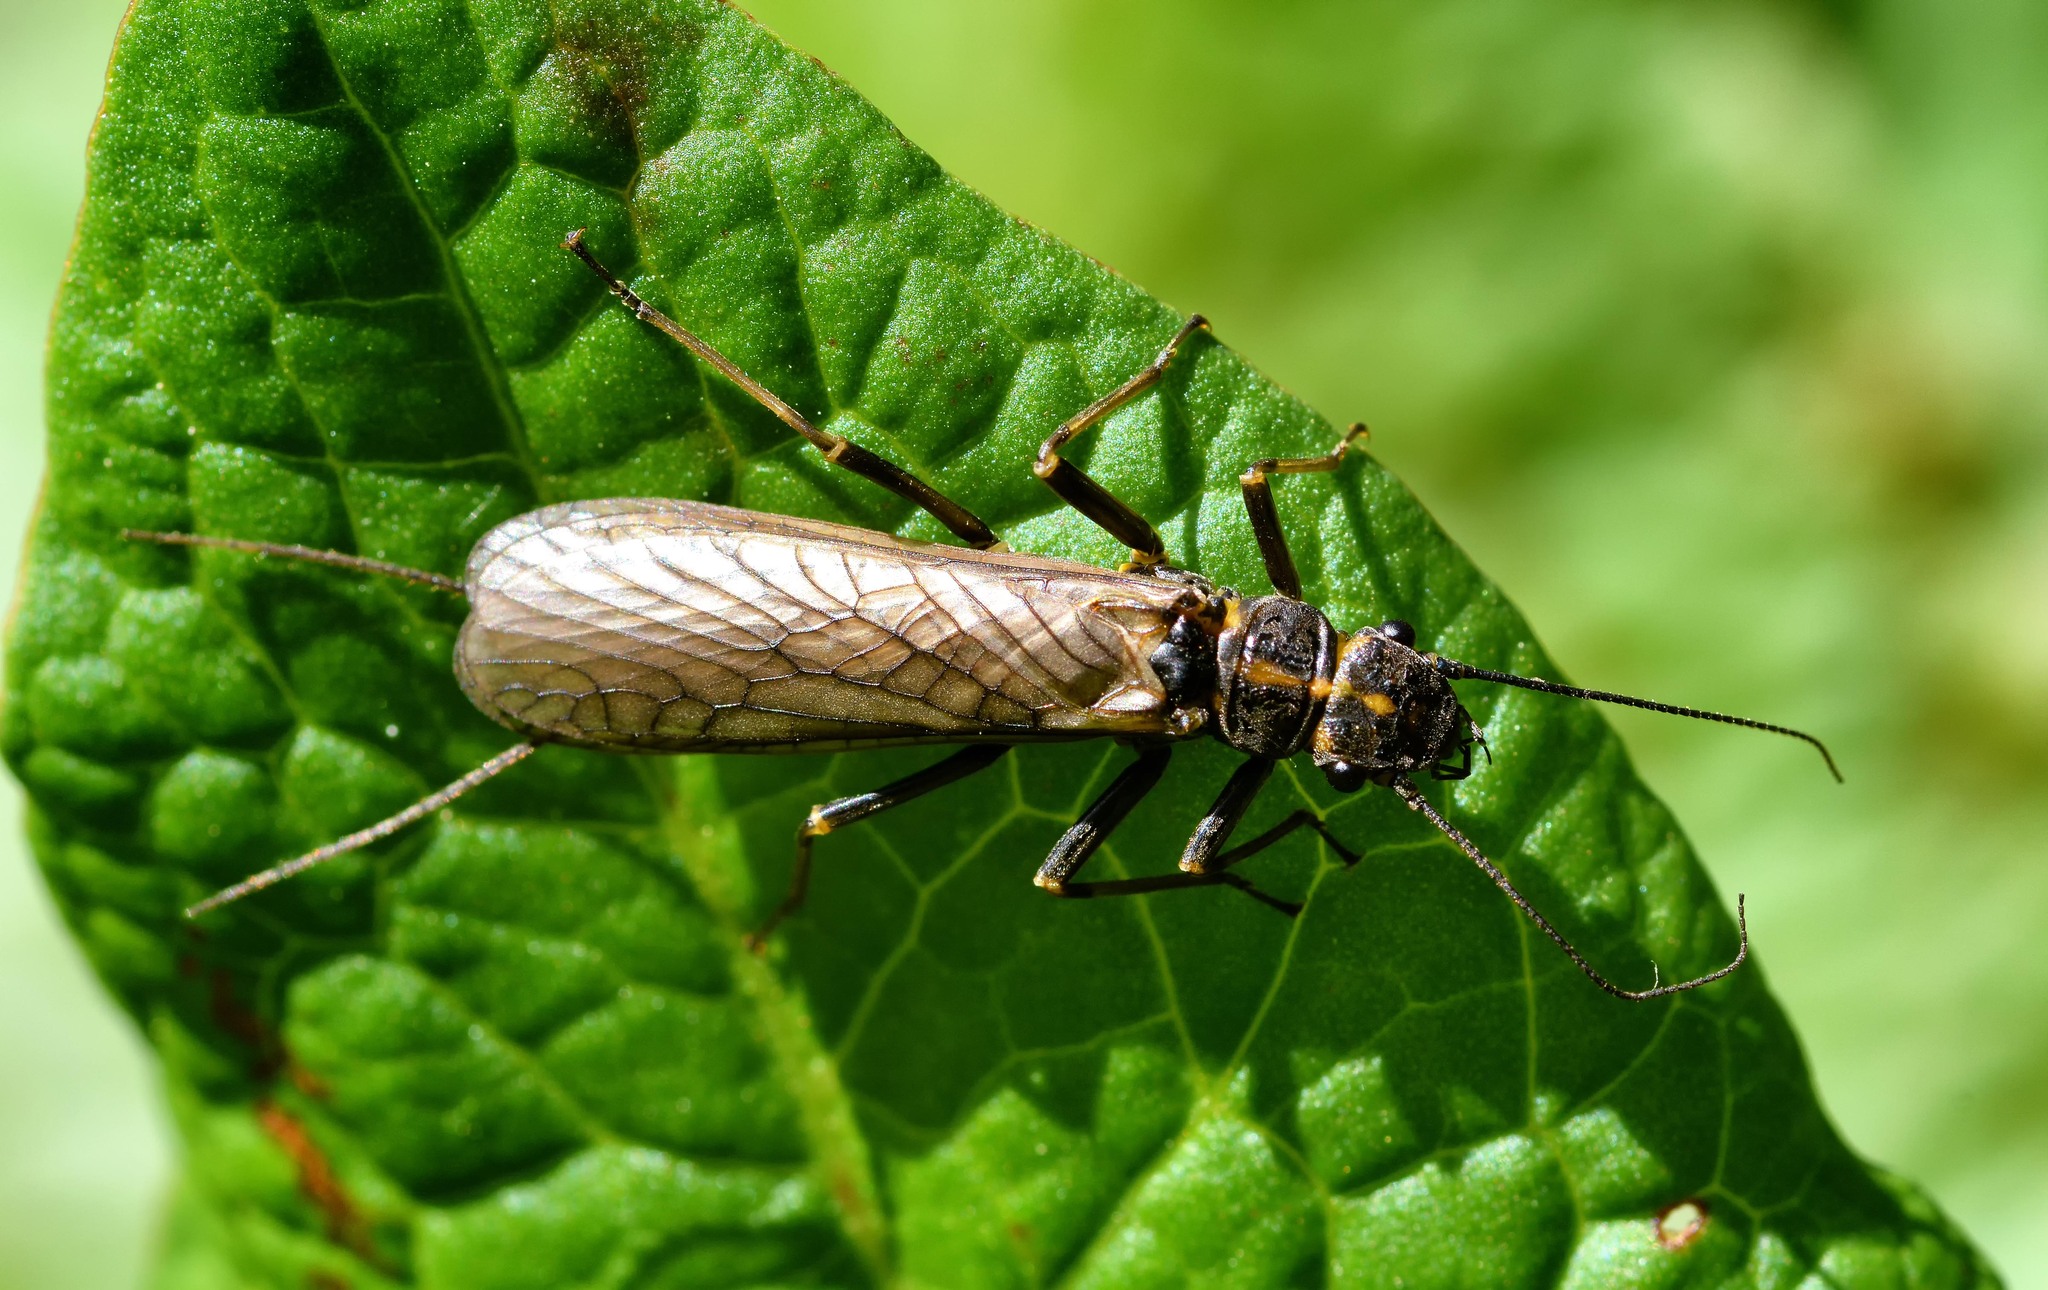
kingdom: Animalia
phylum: Arthropoda
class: Insecta
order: Plecoptera
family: Perlodidae
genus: Perlodes
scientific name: Perlodes mortoni
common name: Orange-striped stonefly
